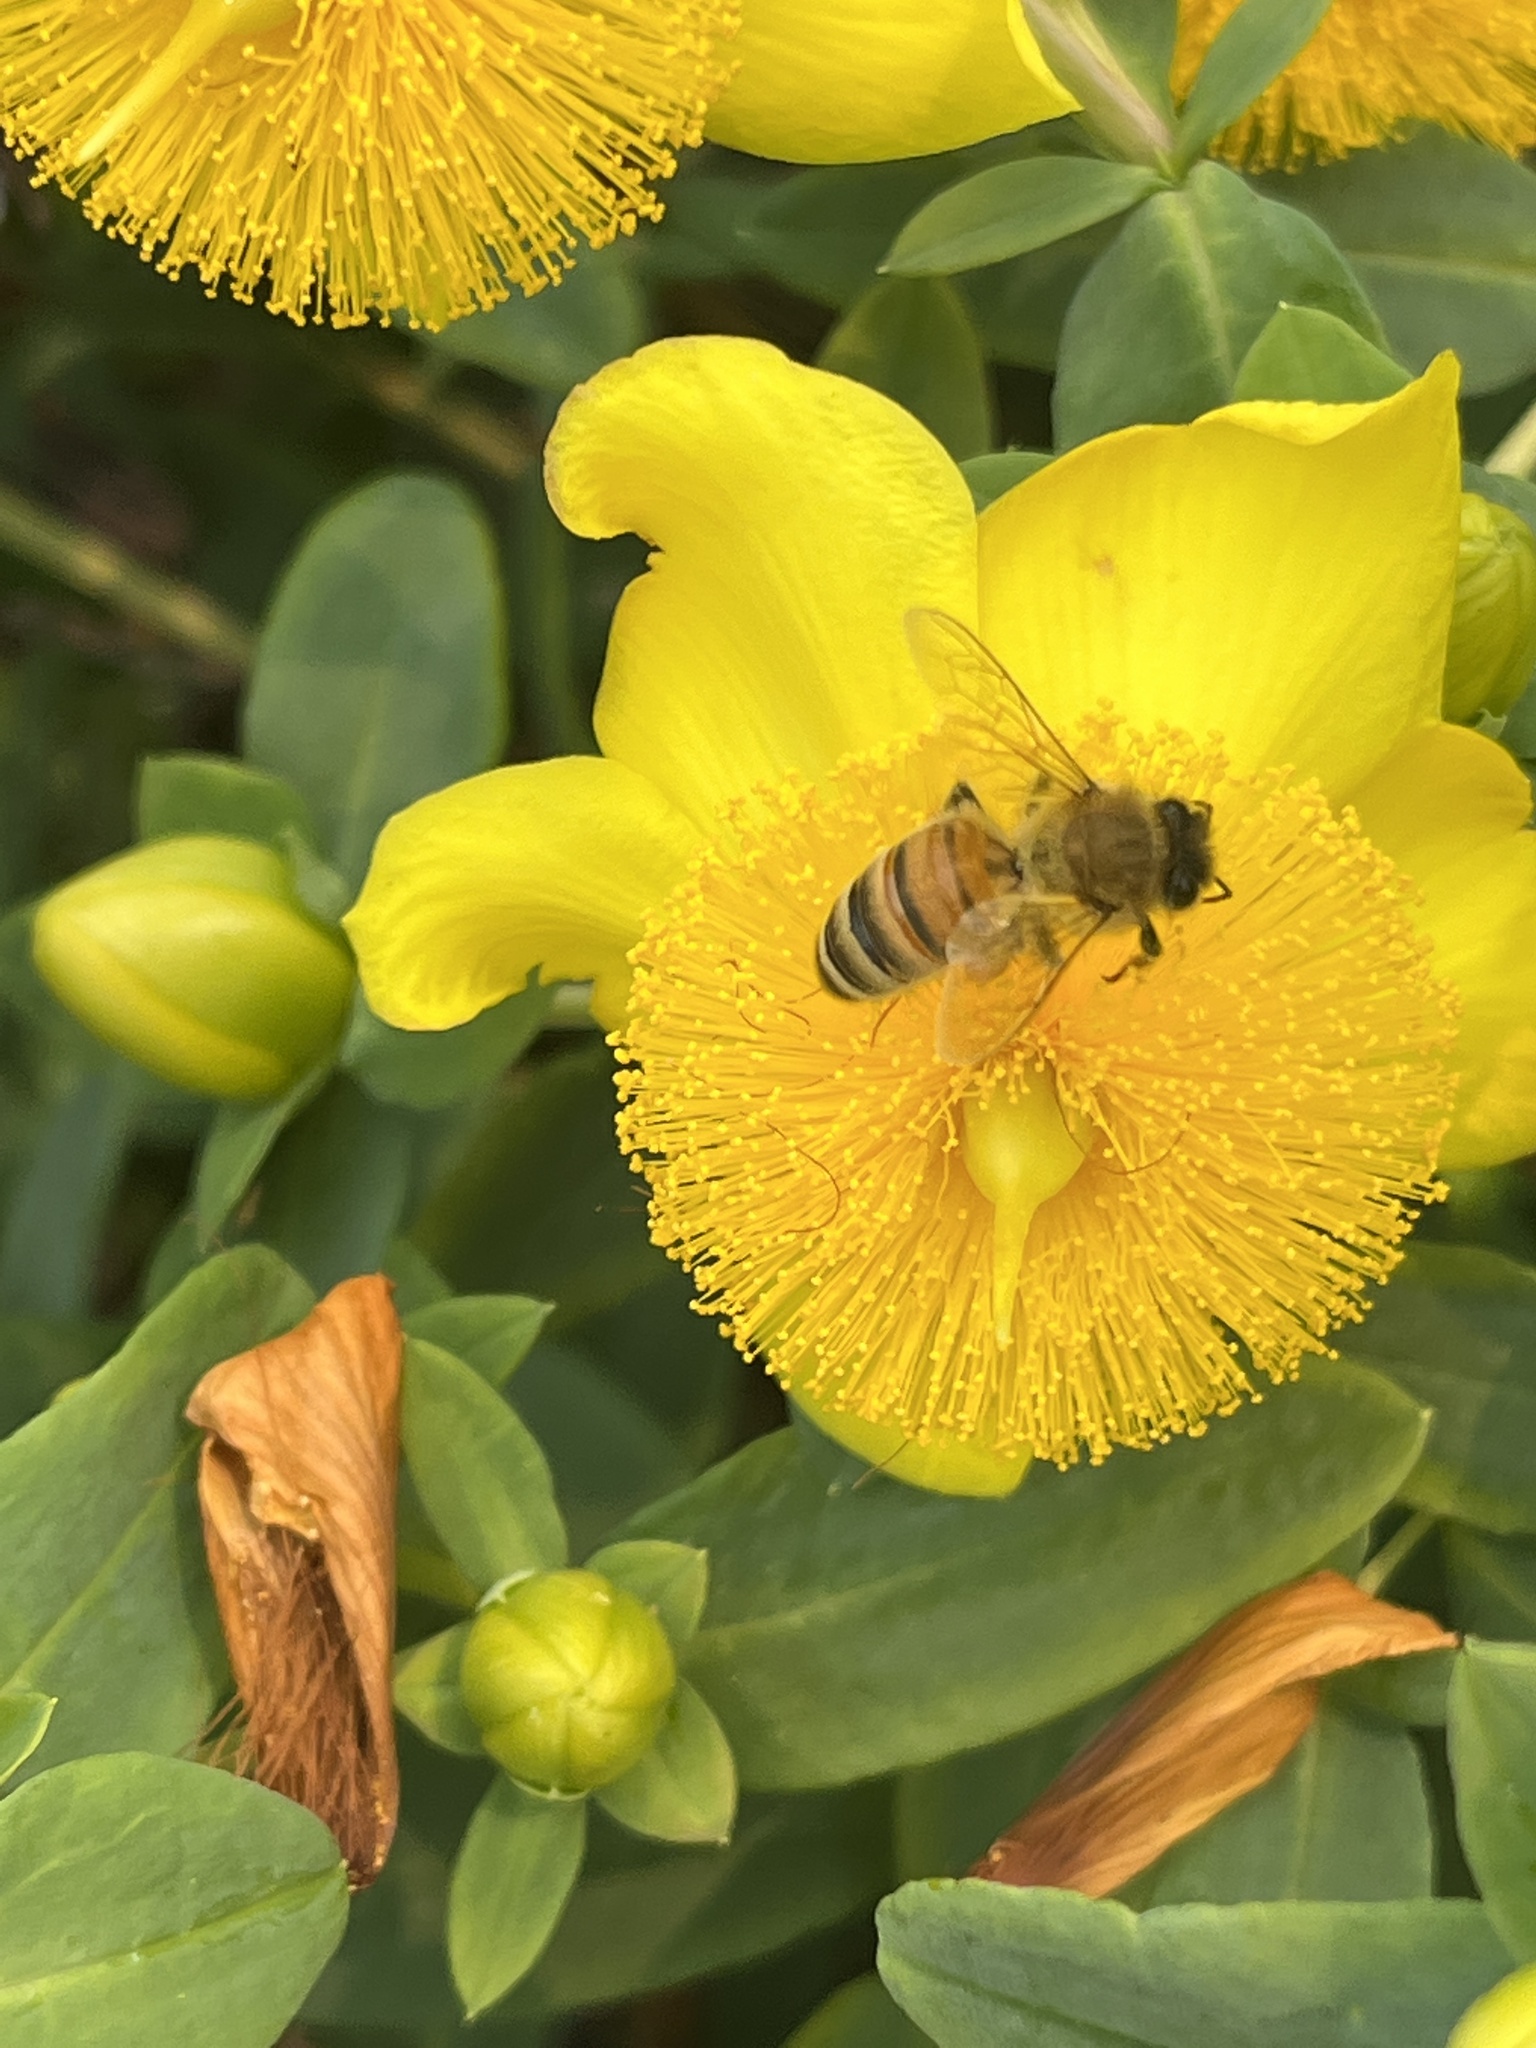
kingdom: Animalia
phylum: Arthropoda
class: Insecta
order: Hymenoptera
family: Apidae
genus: Apis
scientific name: Apis mellifera
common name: Honey bee
